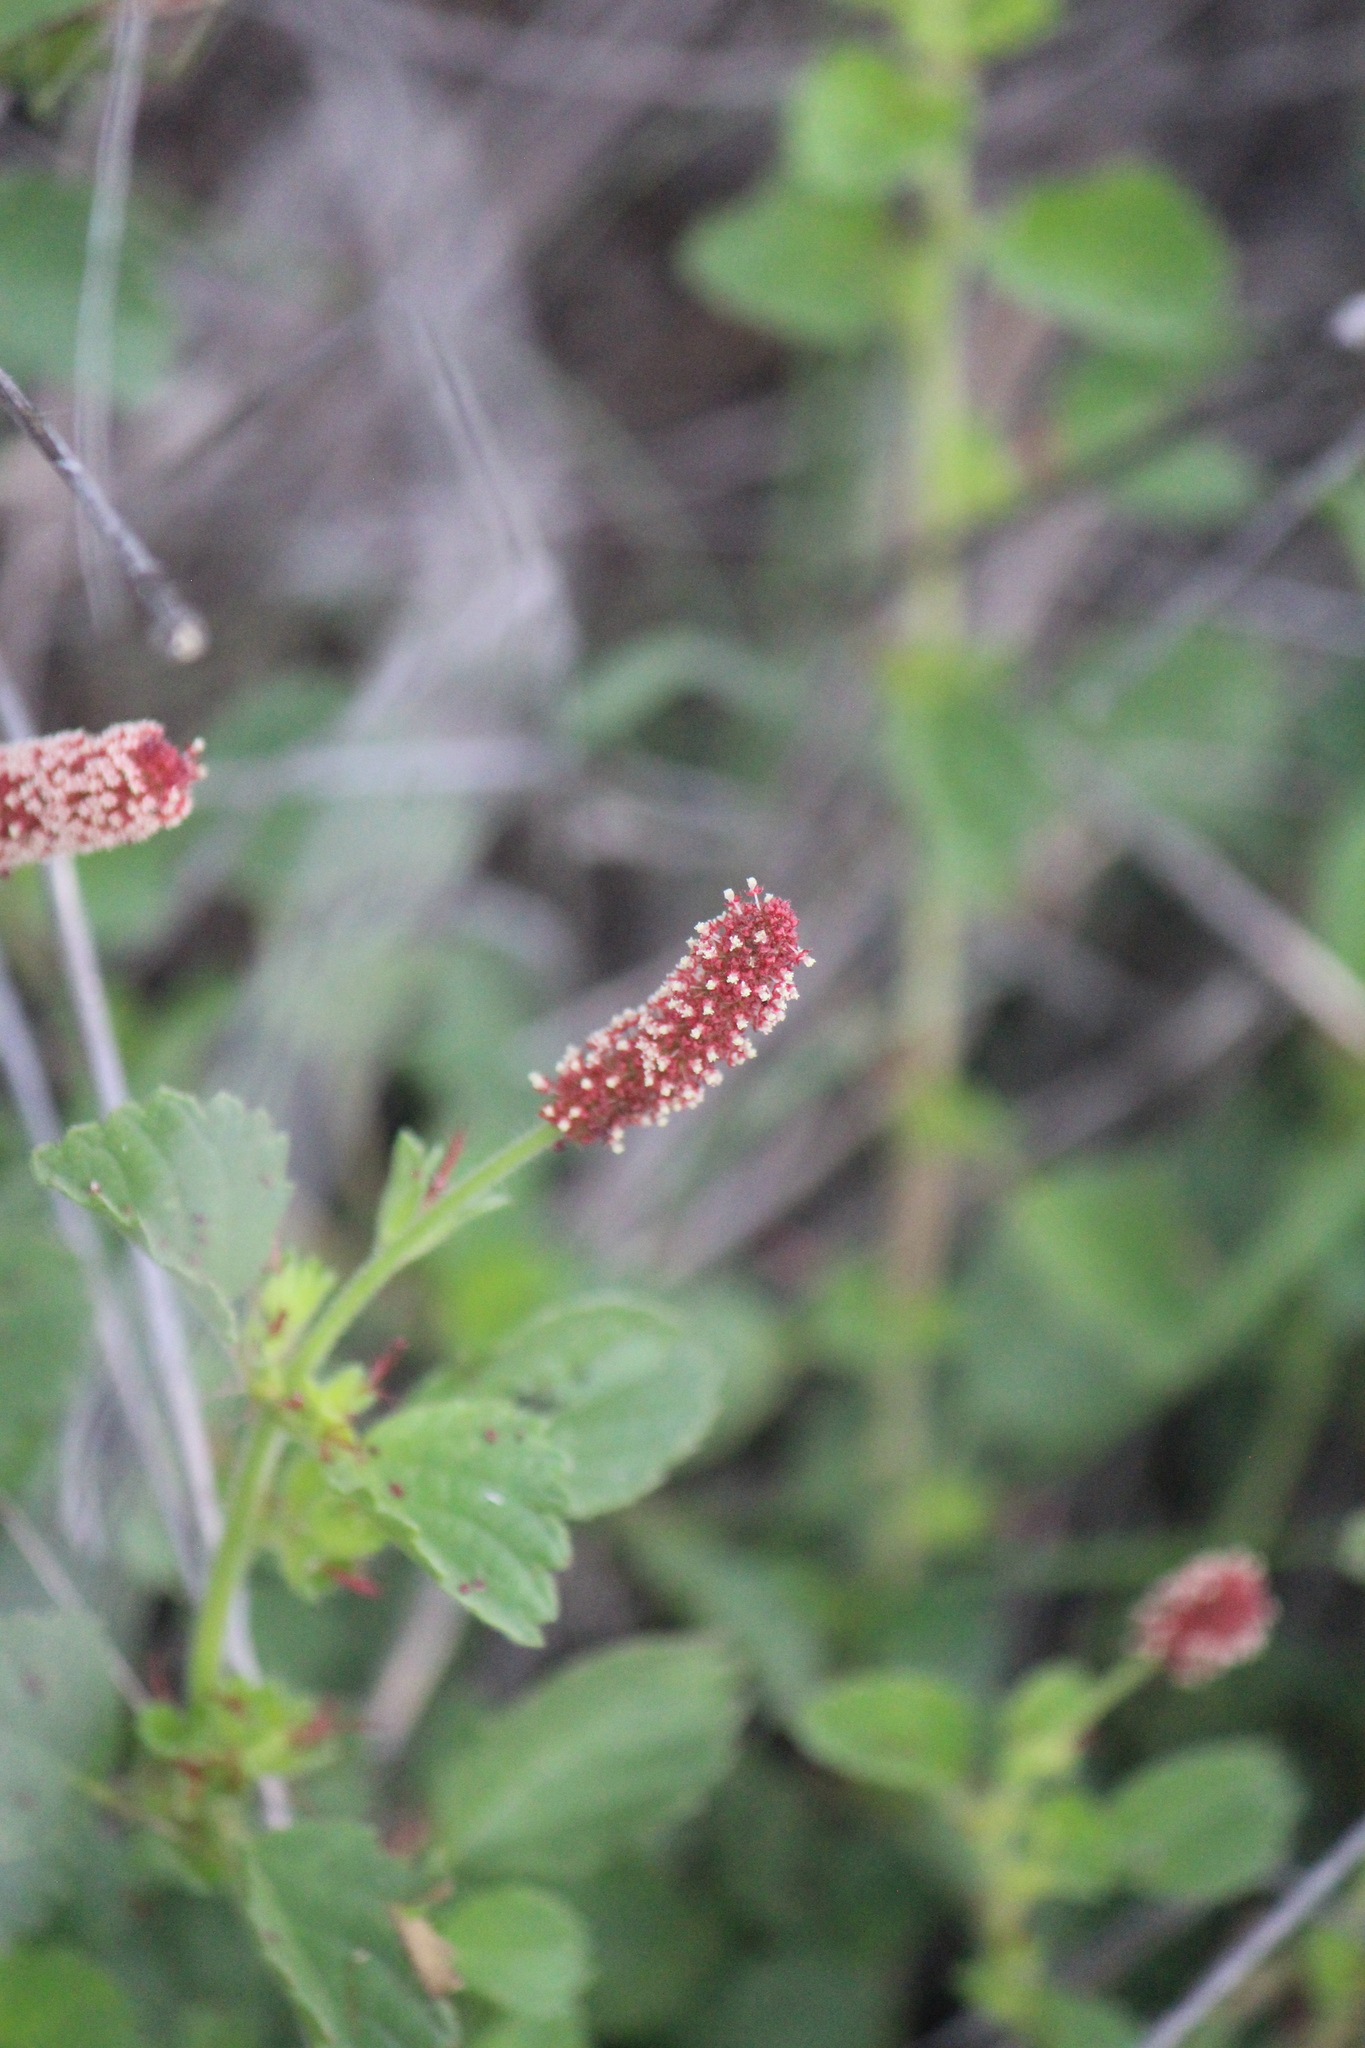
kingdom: Plantae
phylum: Tracheophyta
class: Magnoliopsida
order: Malpighiales
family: Euphorbiaceae
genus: Acalypha
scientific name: Acalypha monostachya
